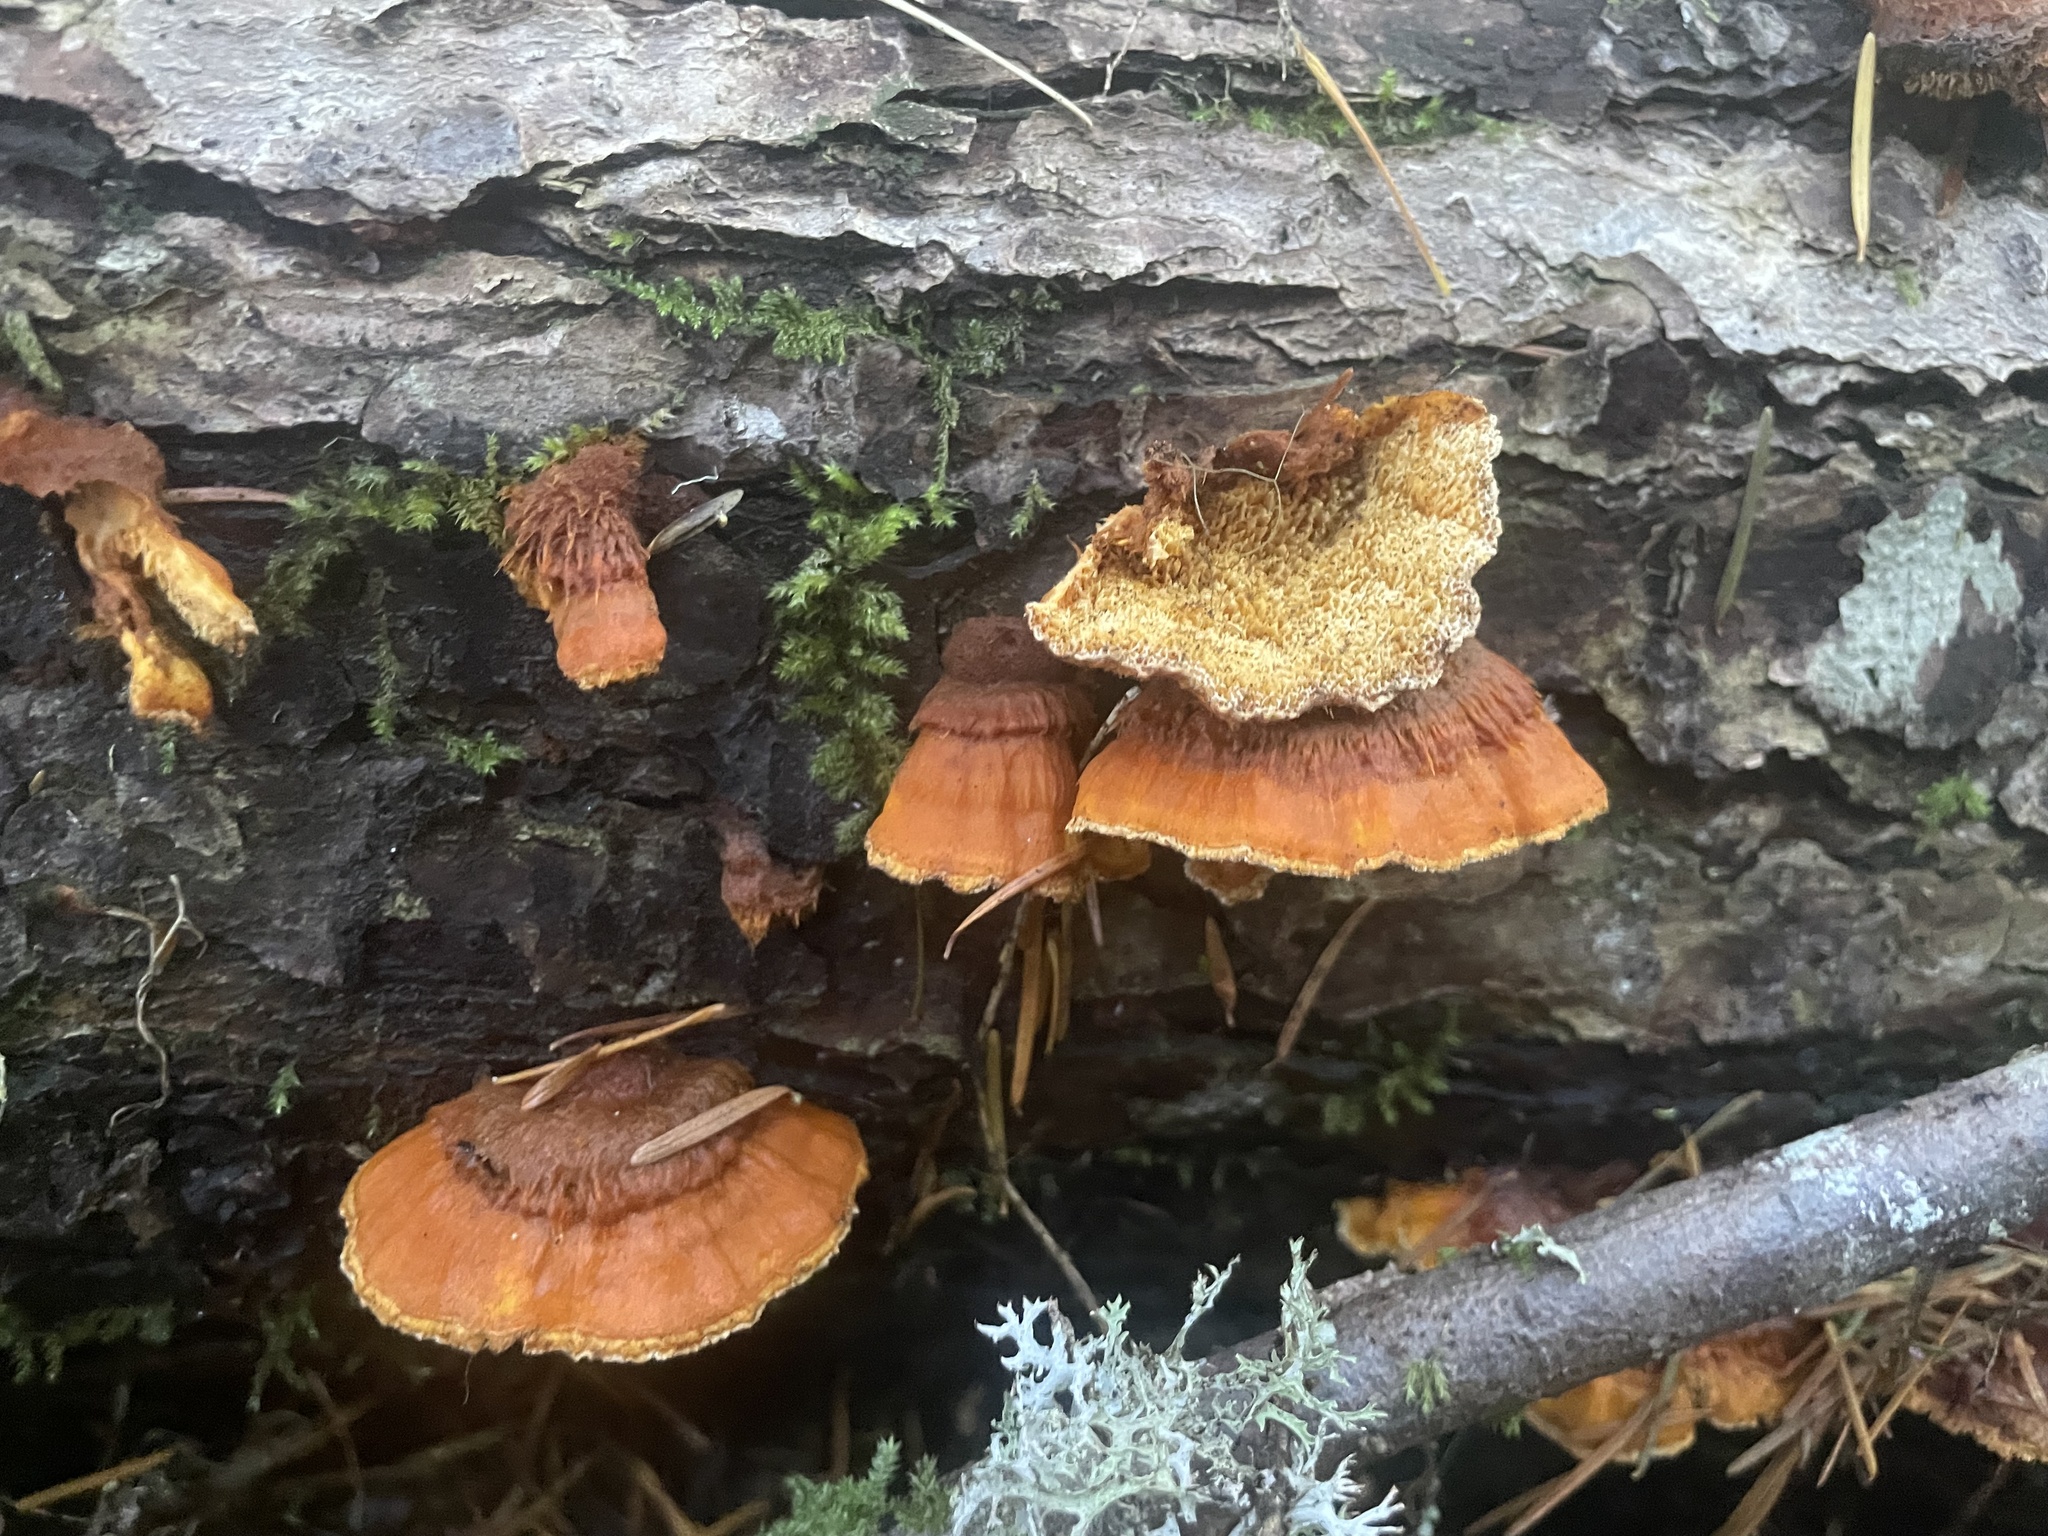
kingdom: Fungi
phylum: Basidiomycota
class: Agaricomycetes
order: Polyporales
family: Pycnoporellaceae
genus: Pycnoporellus
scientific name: Pycnoporellus fulgens
